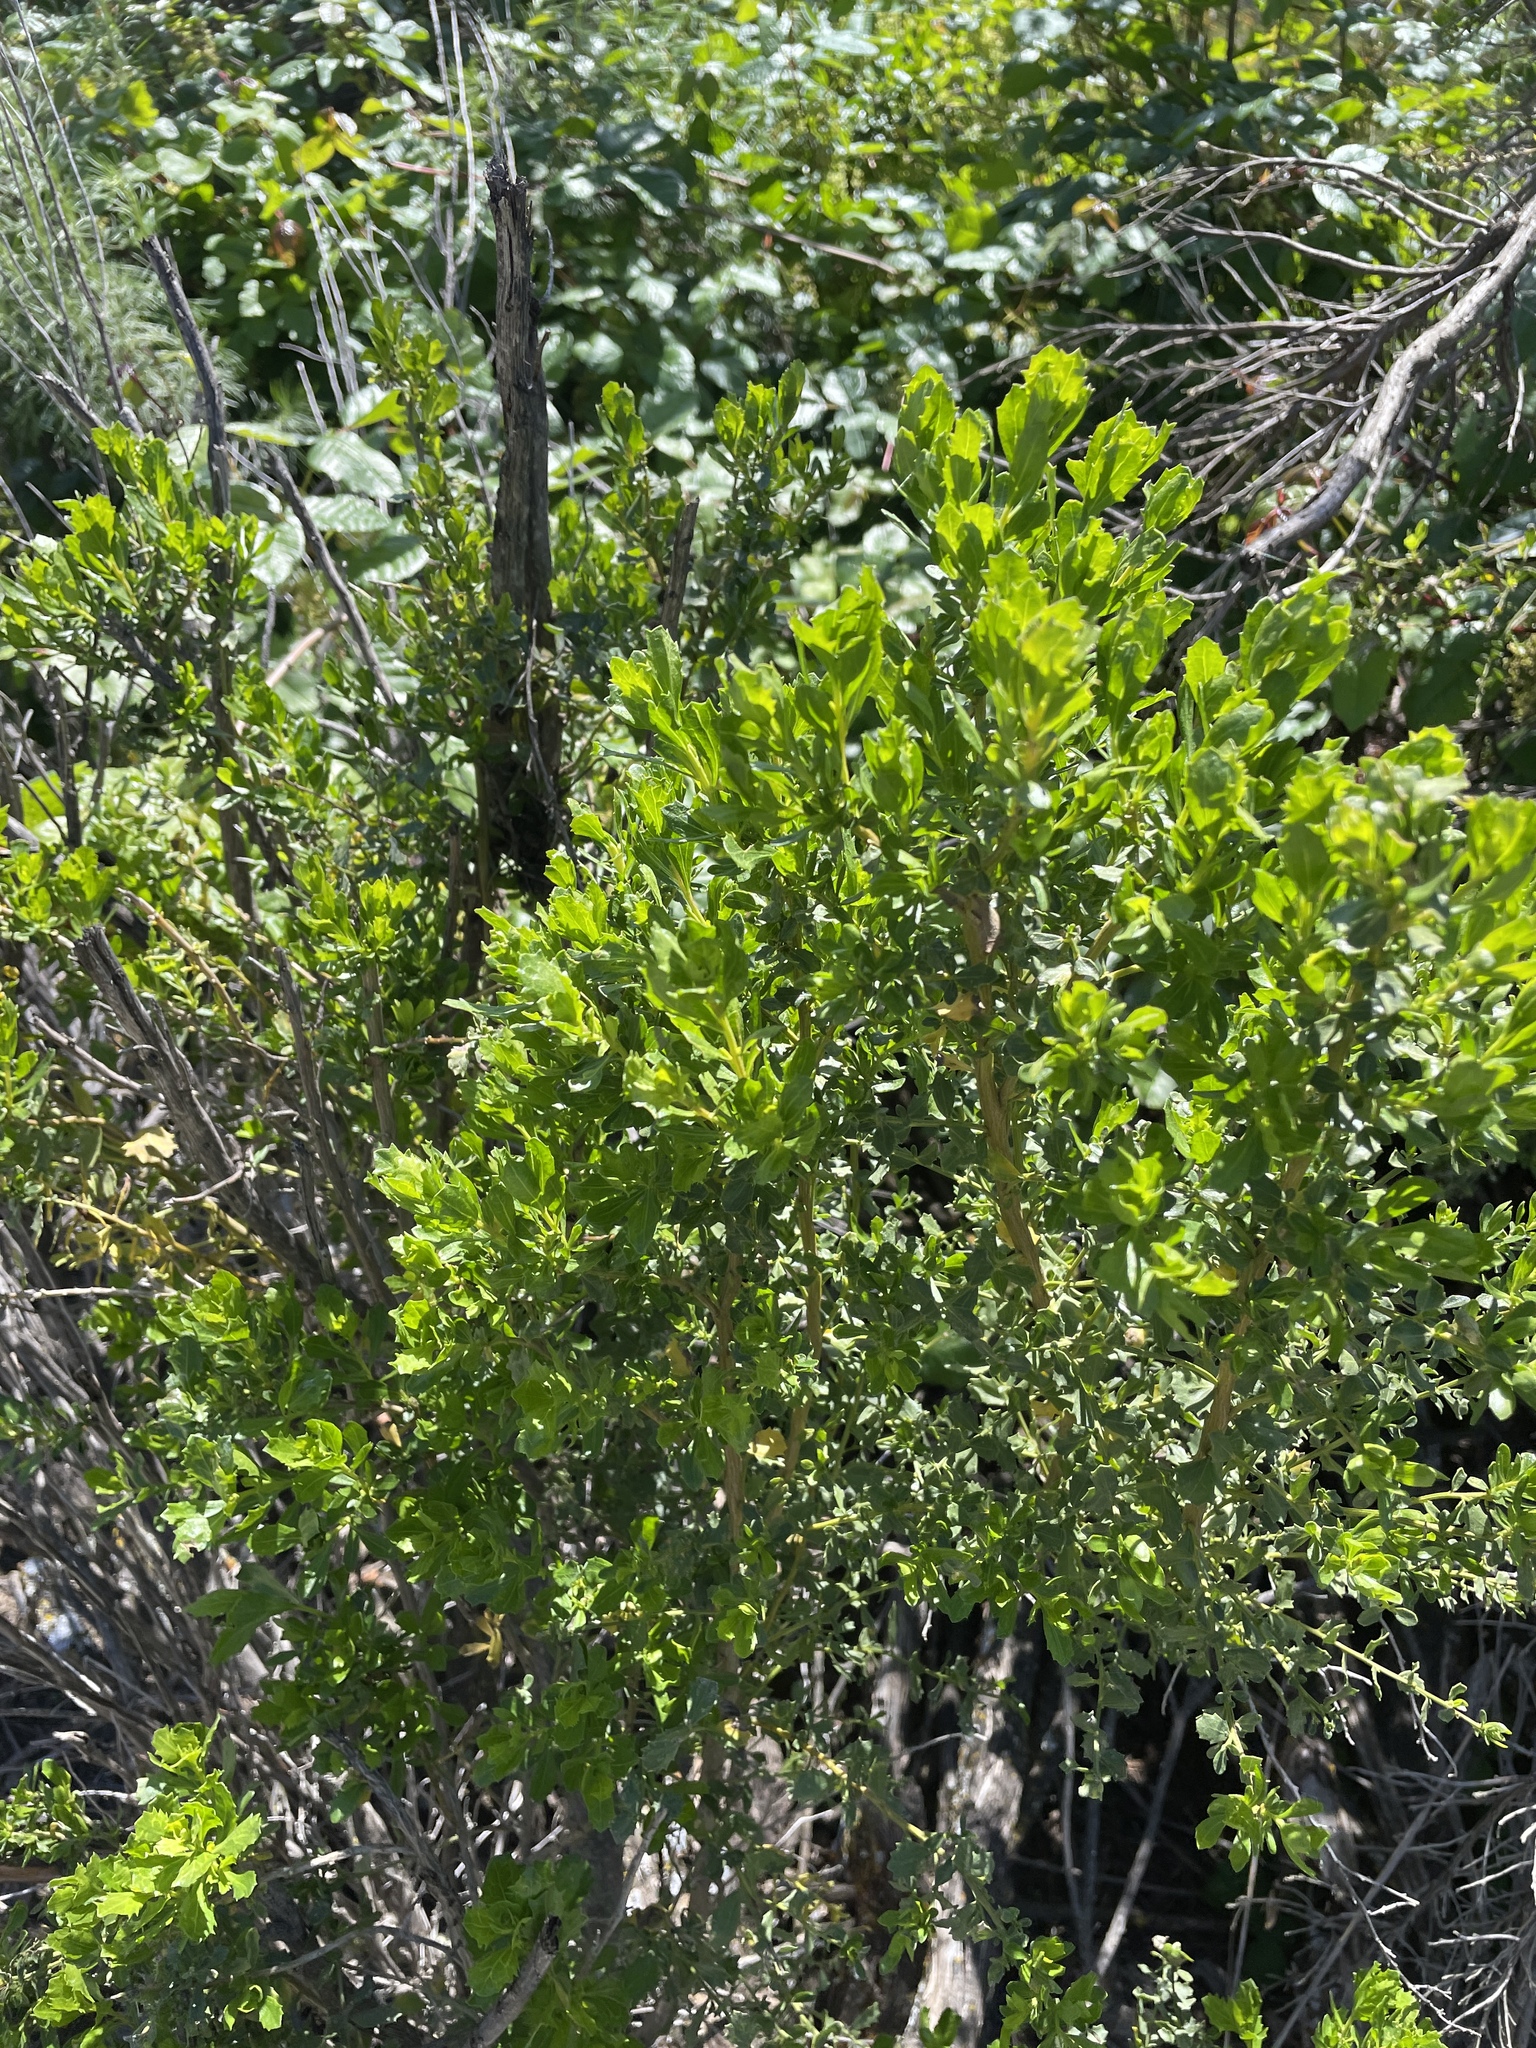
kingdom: Plantae
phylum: Tracheophyta
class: Magnoliopsida
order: Asterales
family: Asteraceae
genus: Baccharis
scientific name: Baccharis pilularis
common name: Coyotebrush
